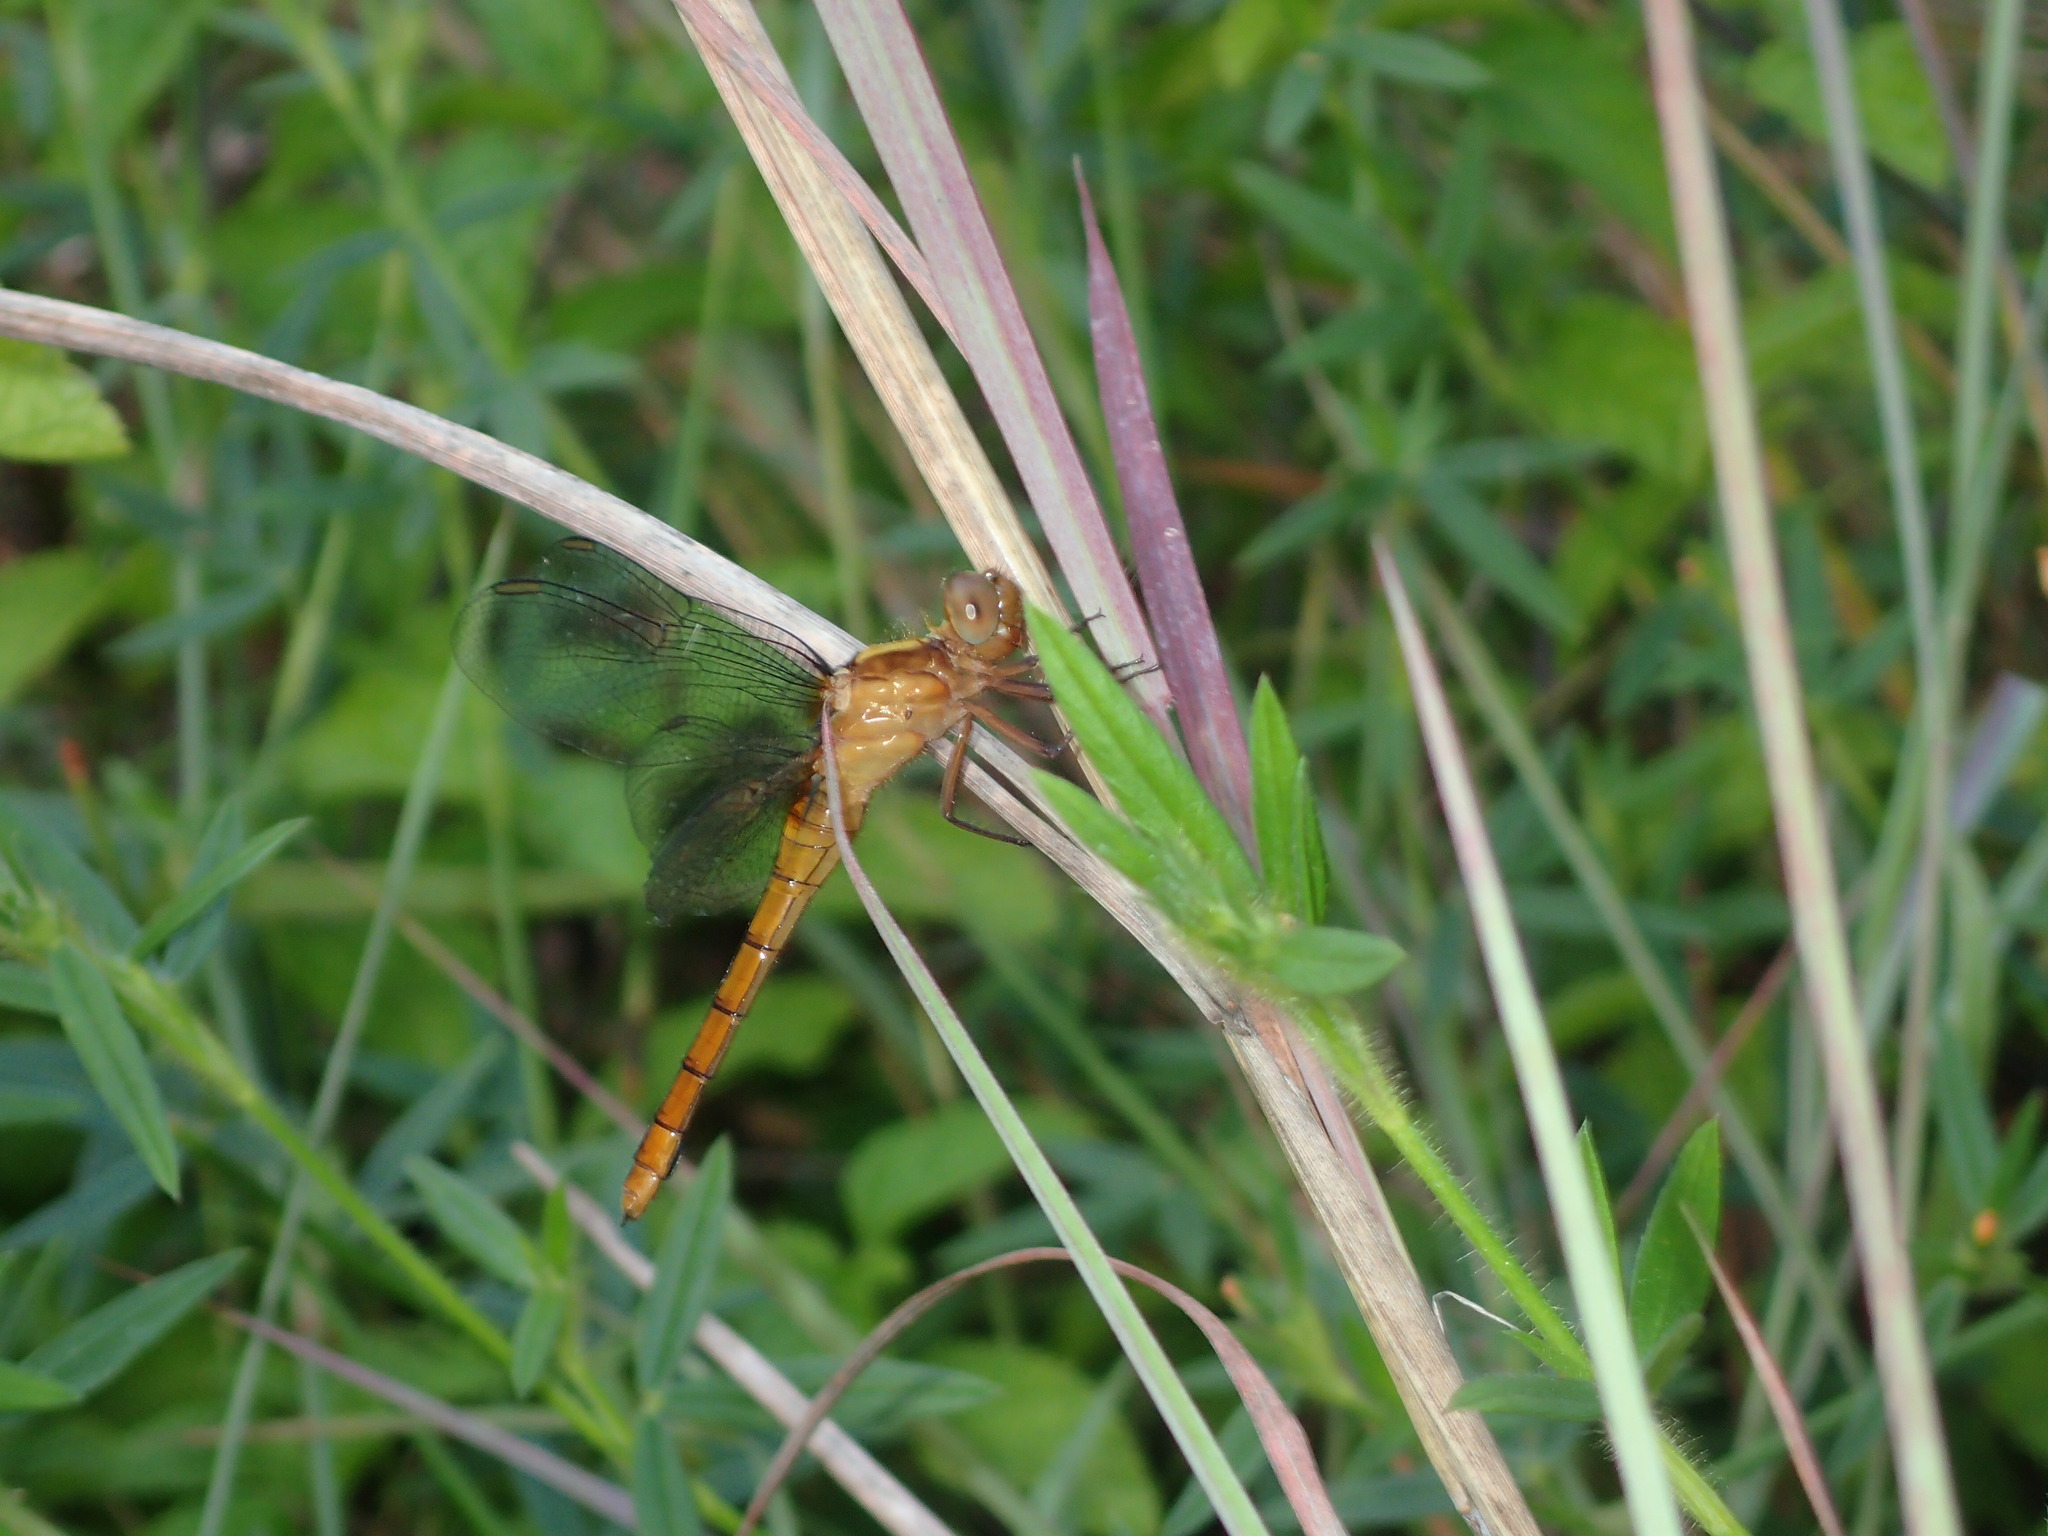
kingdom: Animalia
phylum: Arthropoda
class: Insecta
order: Odonata
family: Libellulidae
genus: Orthetrum
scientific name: Orthetrum villosovittatum
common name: Firery skimmer
